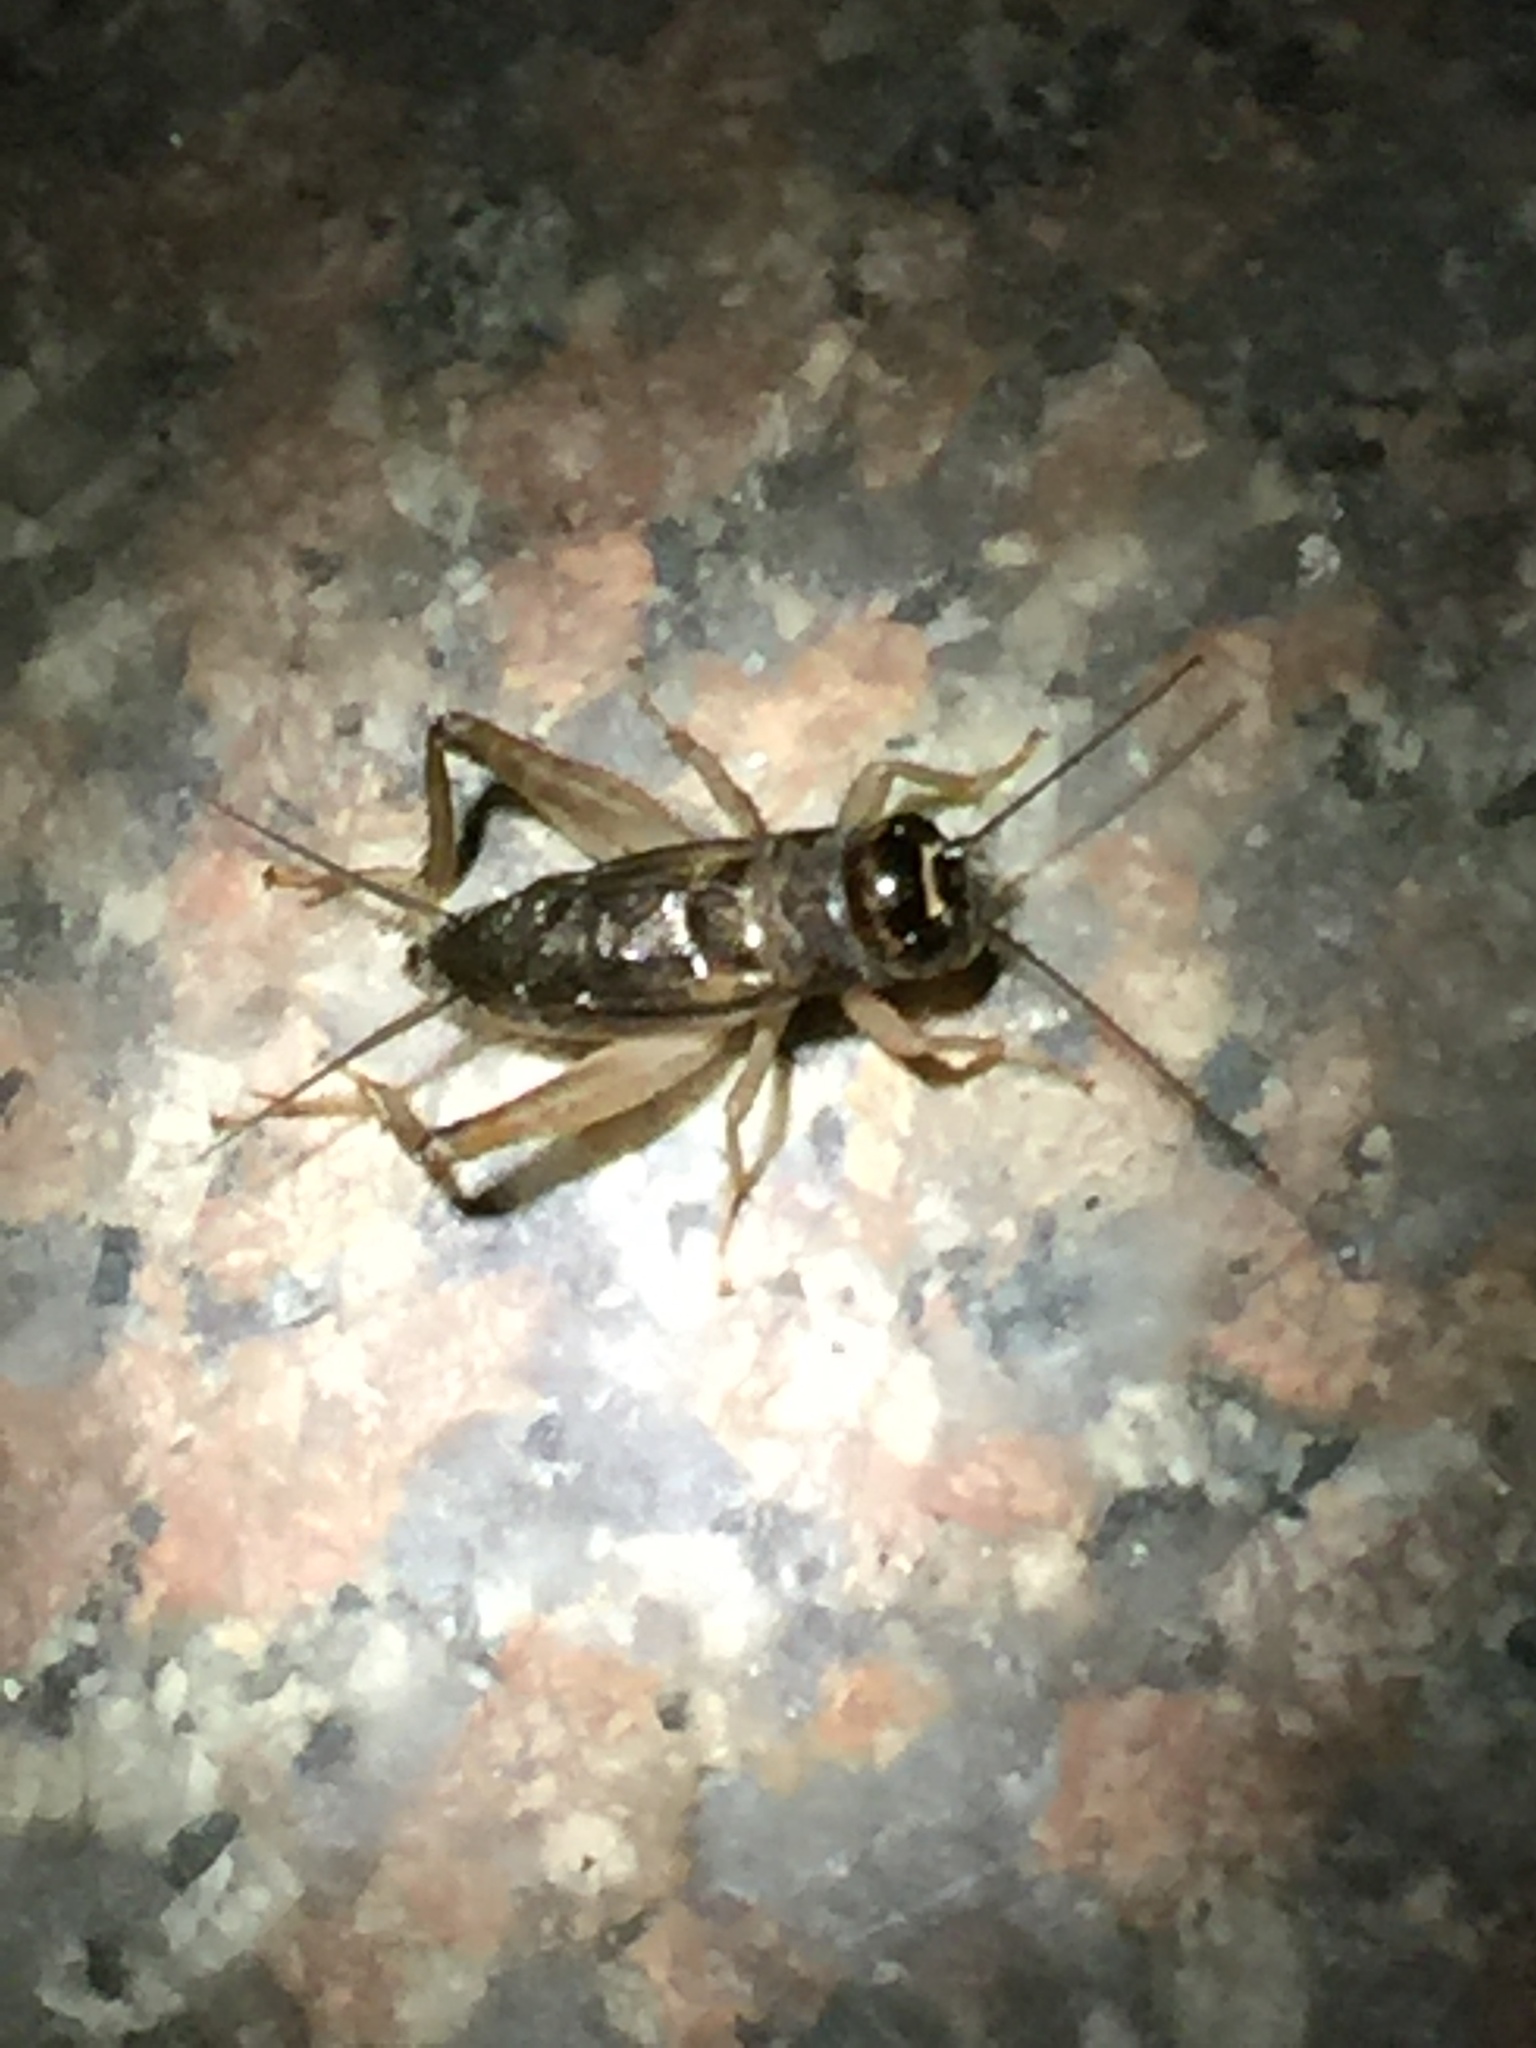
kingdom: Animalia
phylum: Arthropoda
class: Insecta
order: Orthoptera
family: Gryllidae
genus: Svercacheta
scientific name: Svercacheta siamensis
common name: Cricket
